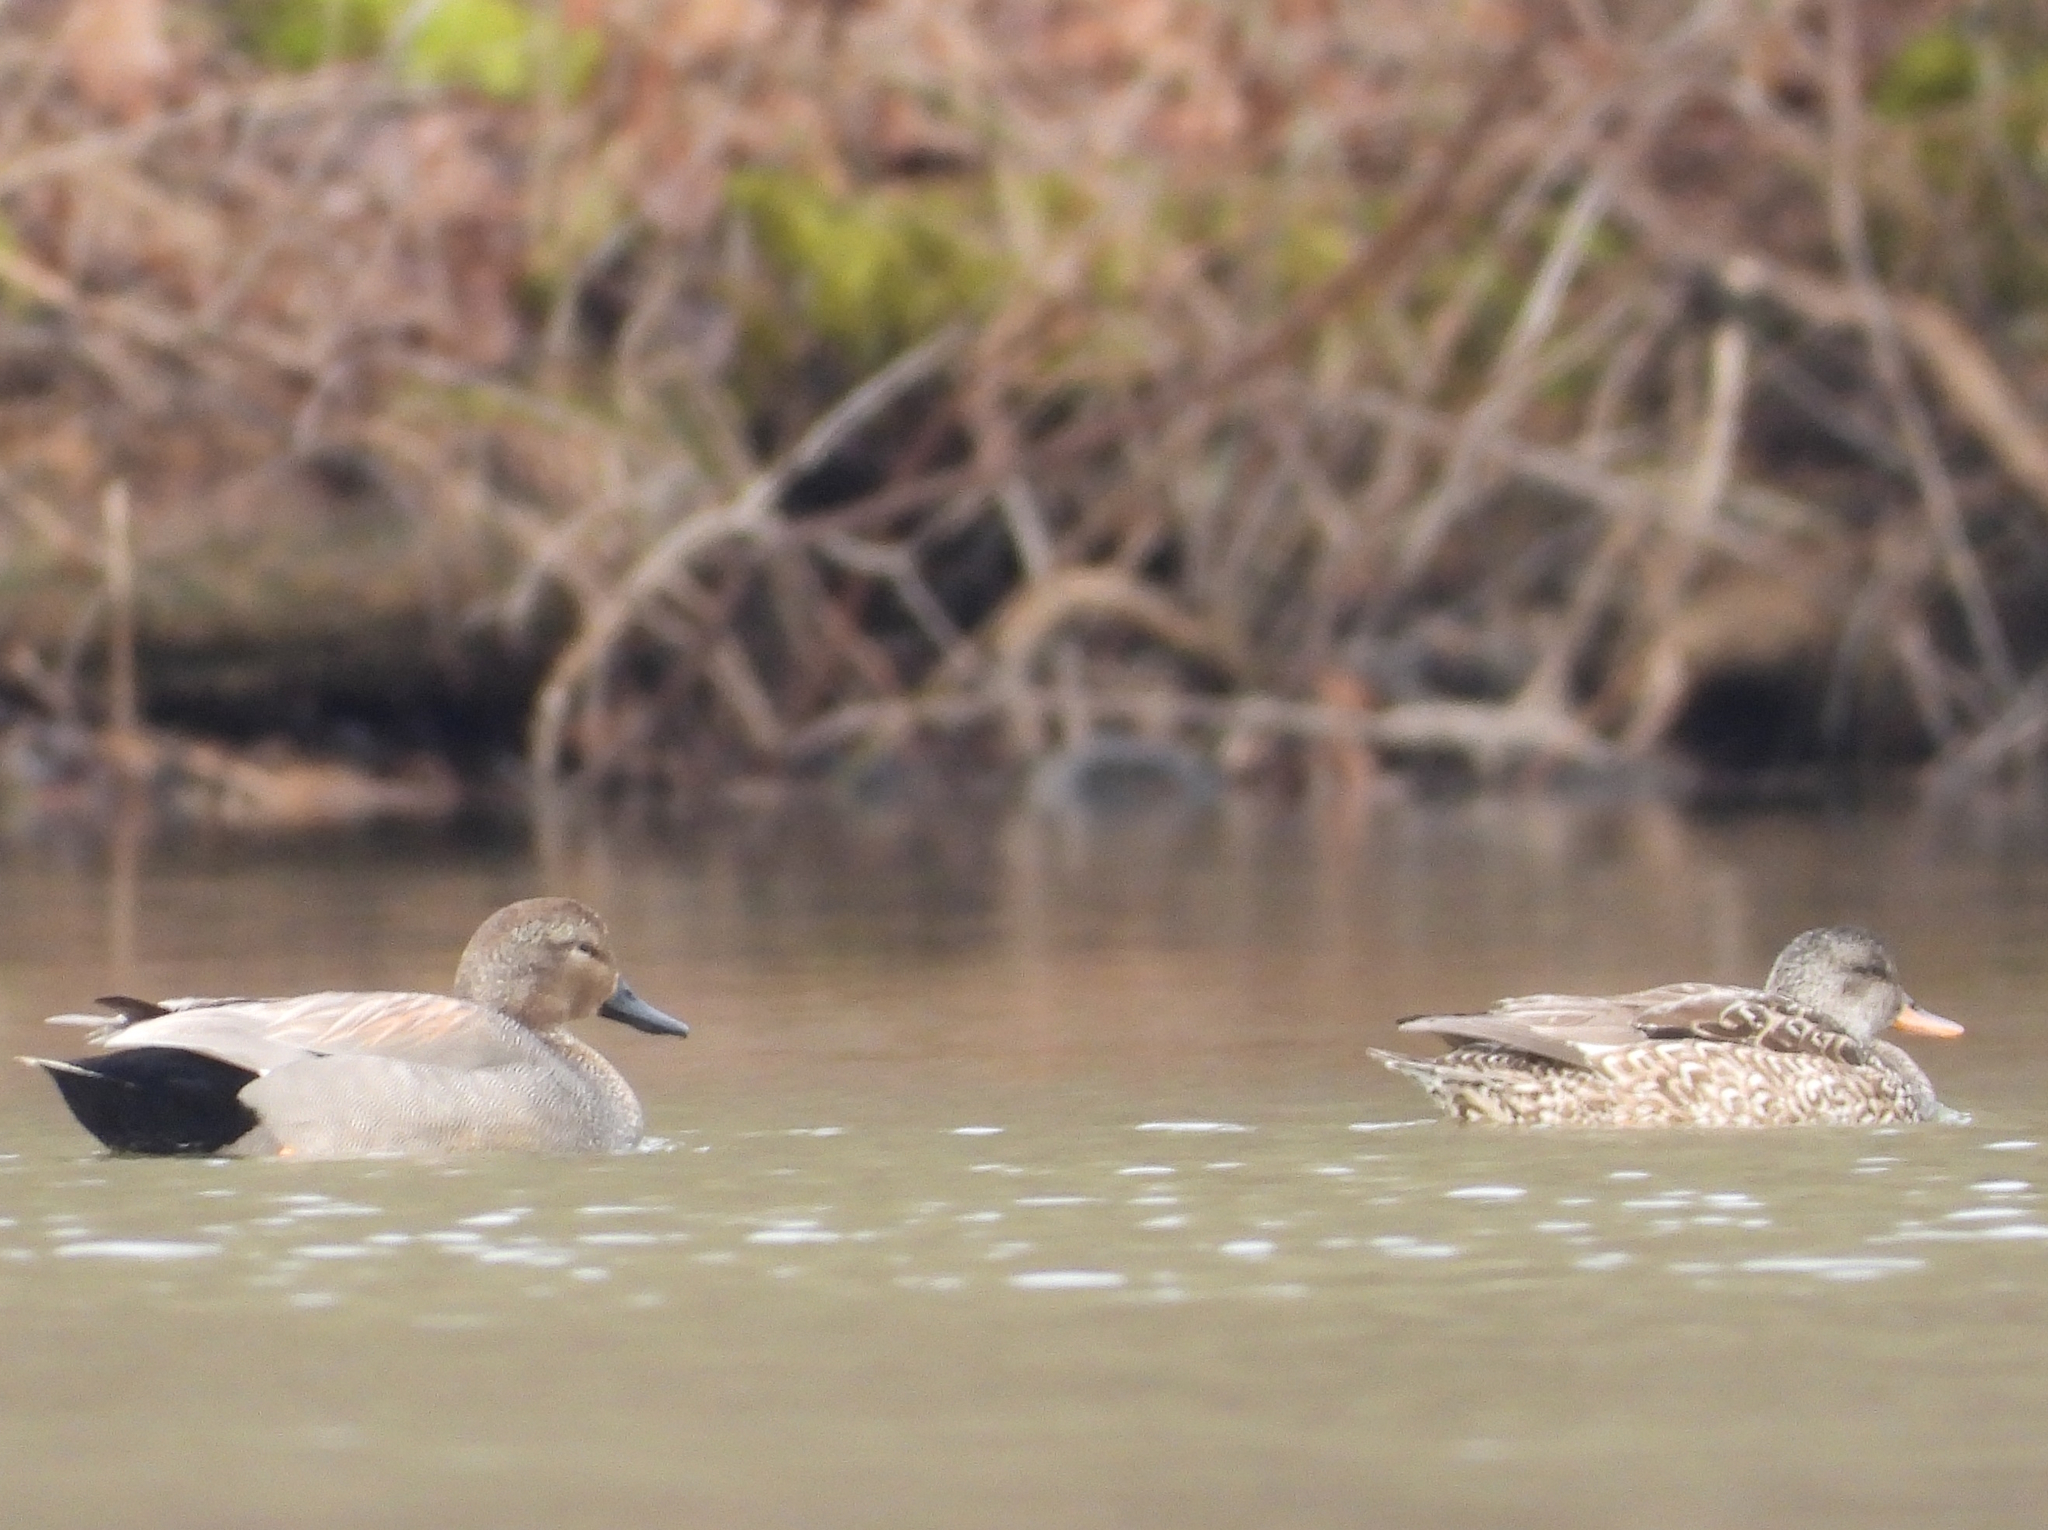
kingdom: Animalia
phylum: Chordata
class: Aves
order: Anseriformes
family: Anatidae
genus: Mareca
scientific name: Mareca strepera
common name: Gadwall
